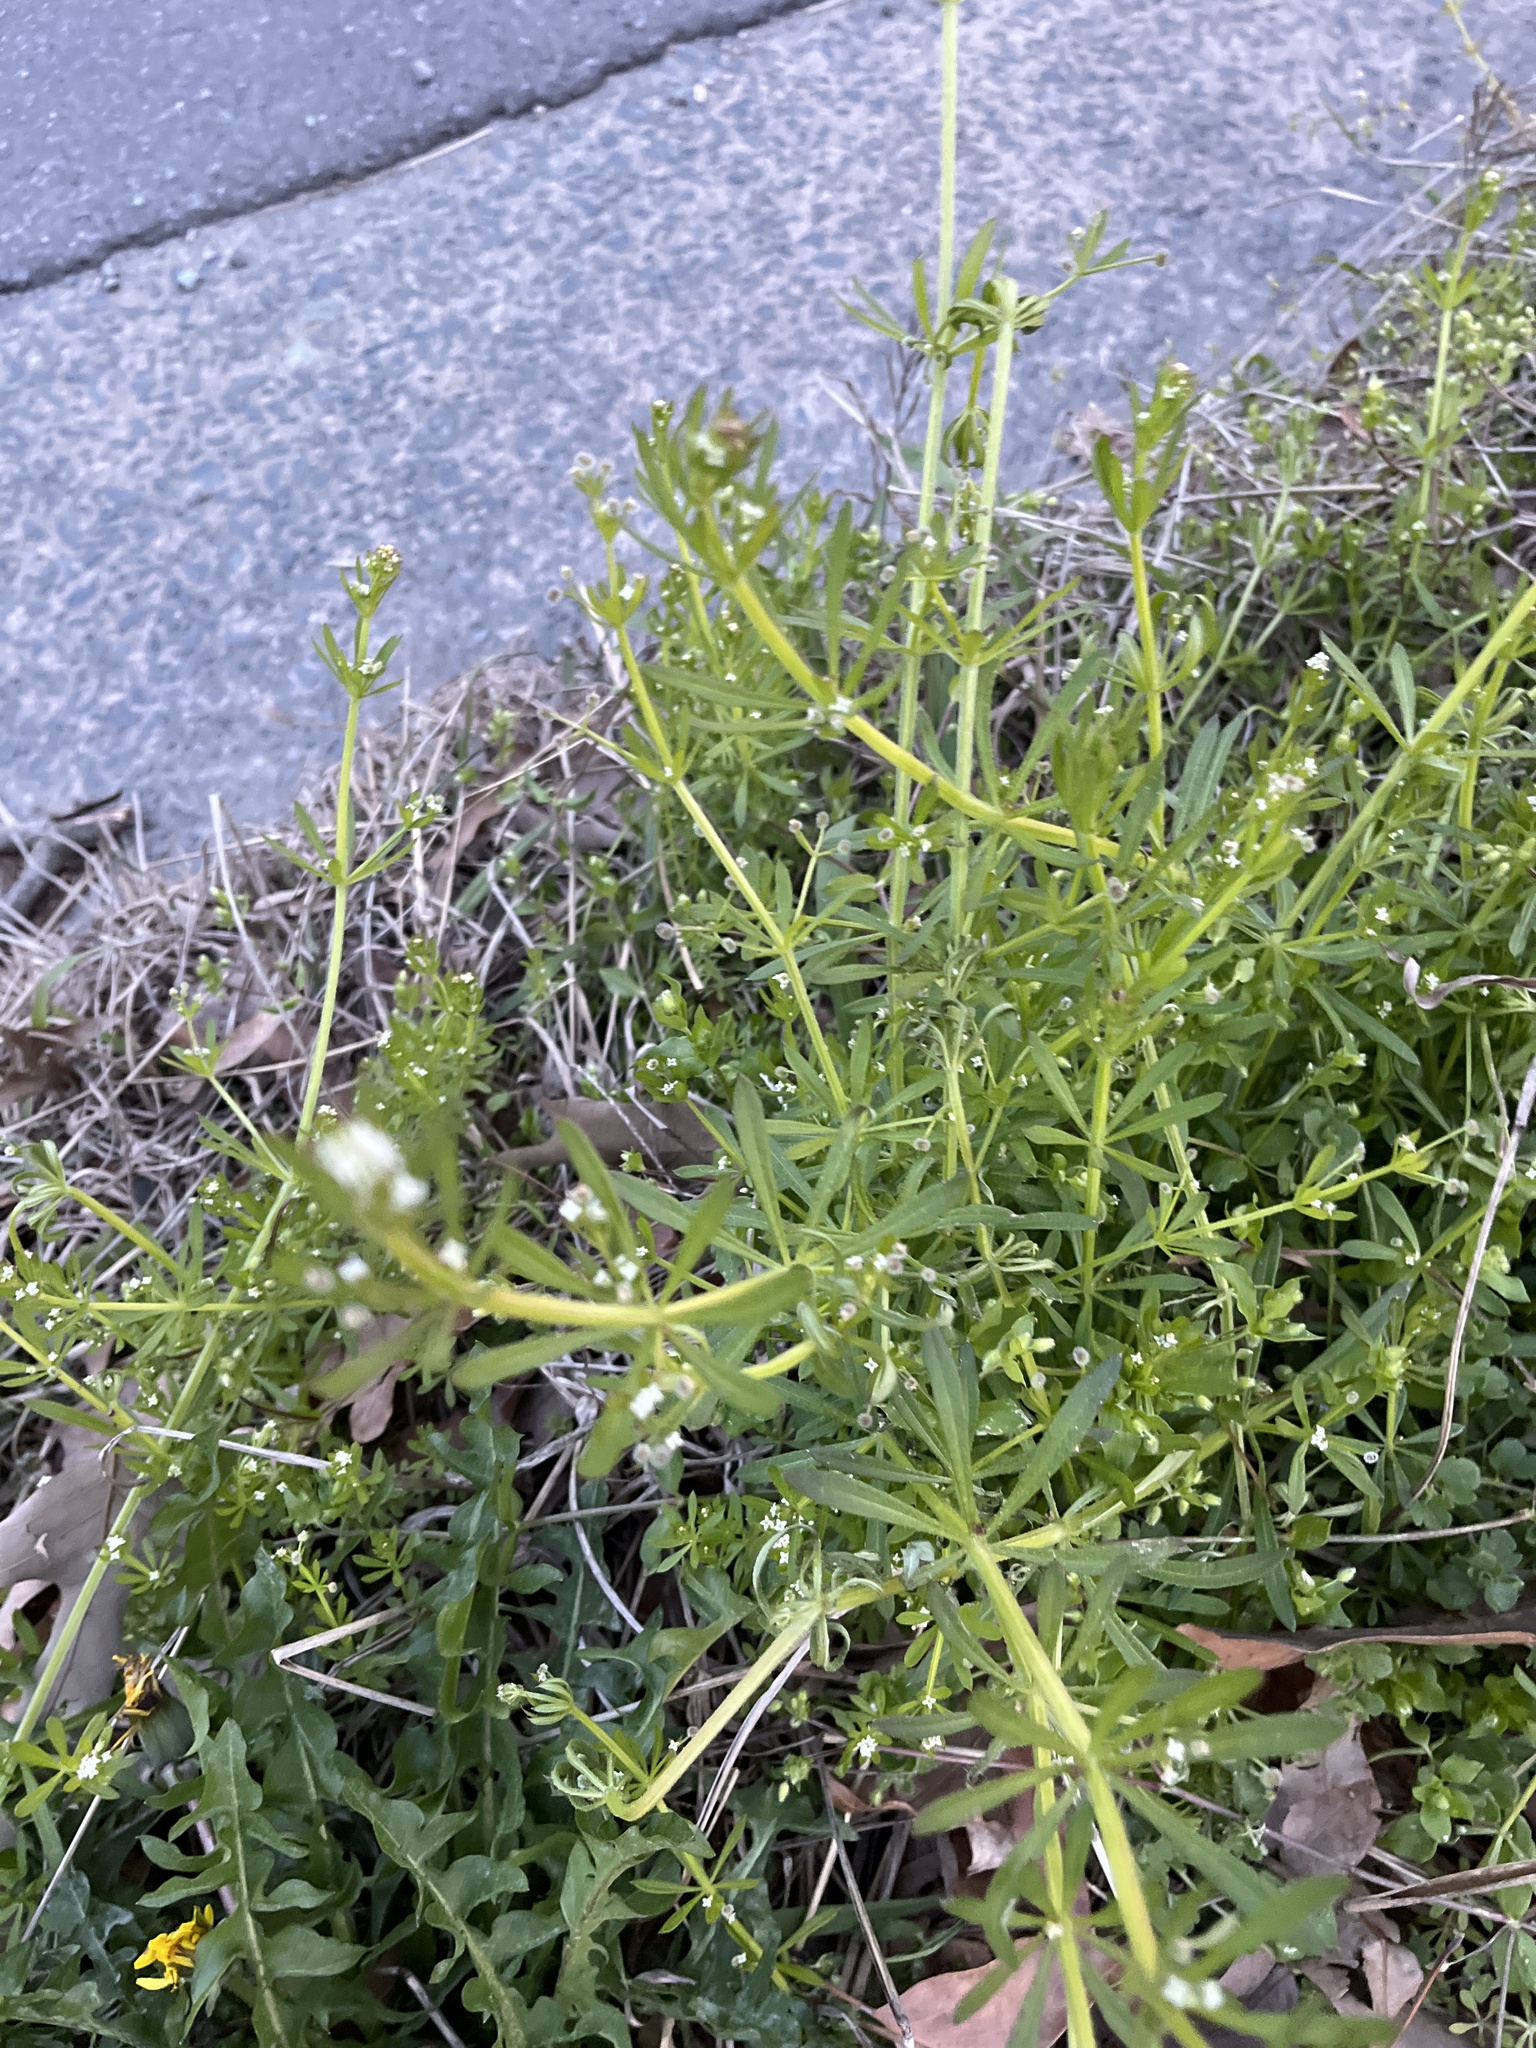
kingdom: Plantae
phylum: Tracheophyta
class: Magnoliopsida
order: Gentianales
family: Rubiaceae
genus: Galium
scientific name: Galium aparine
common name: Cleavers
